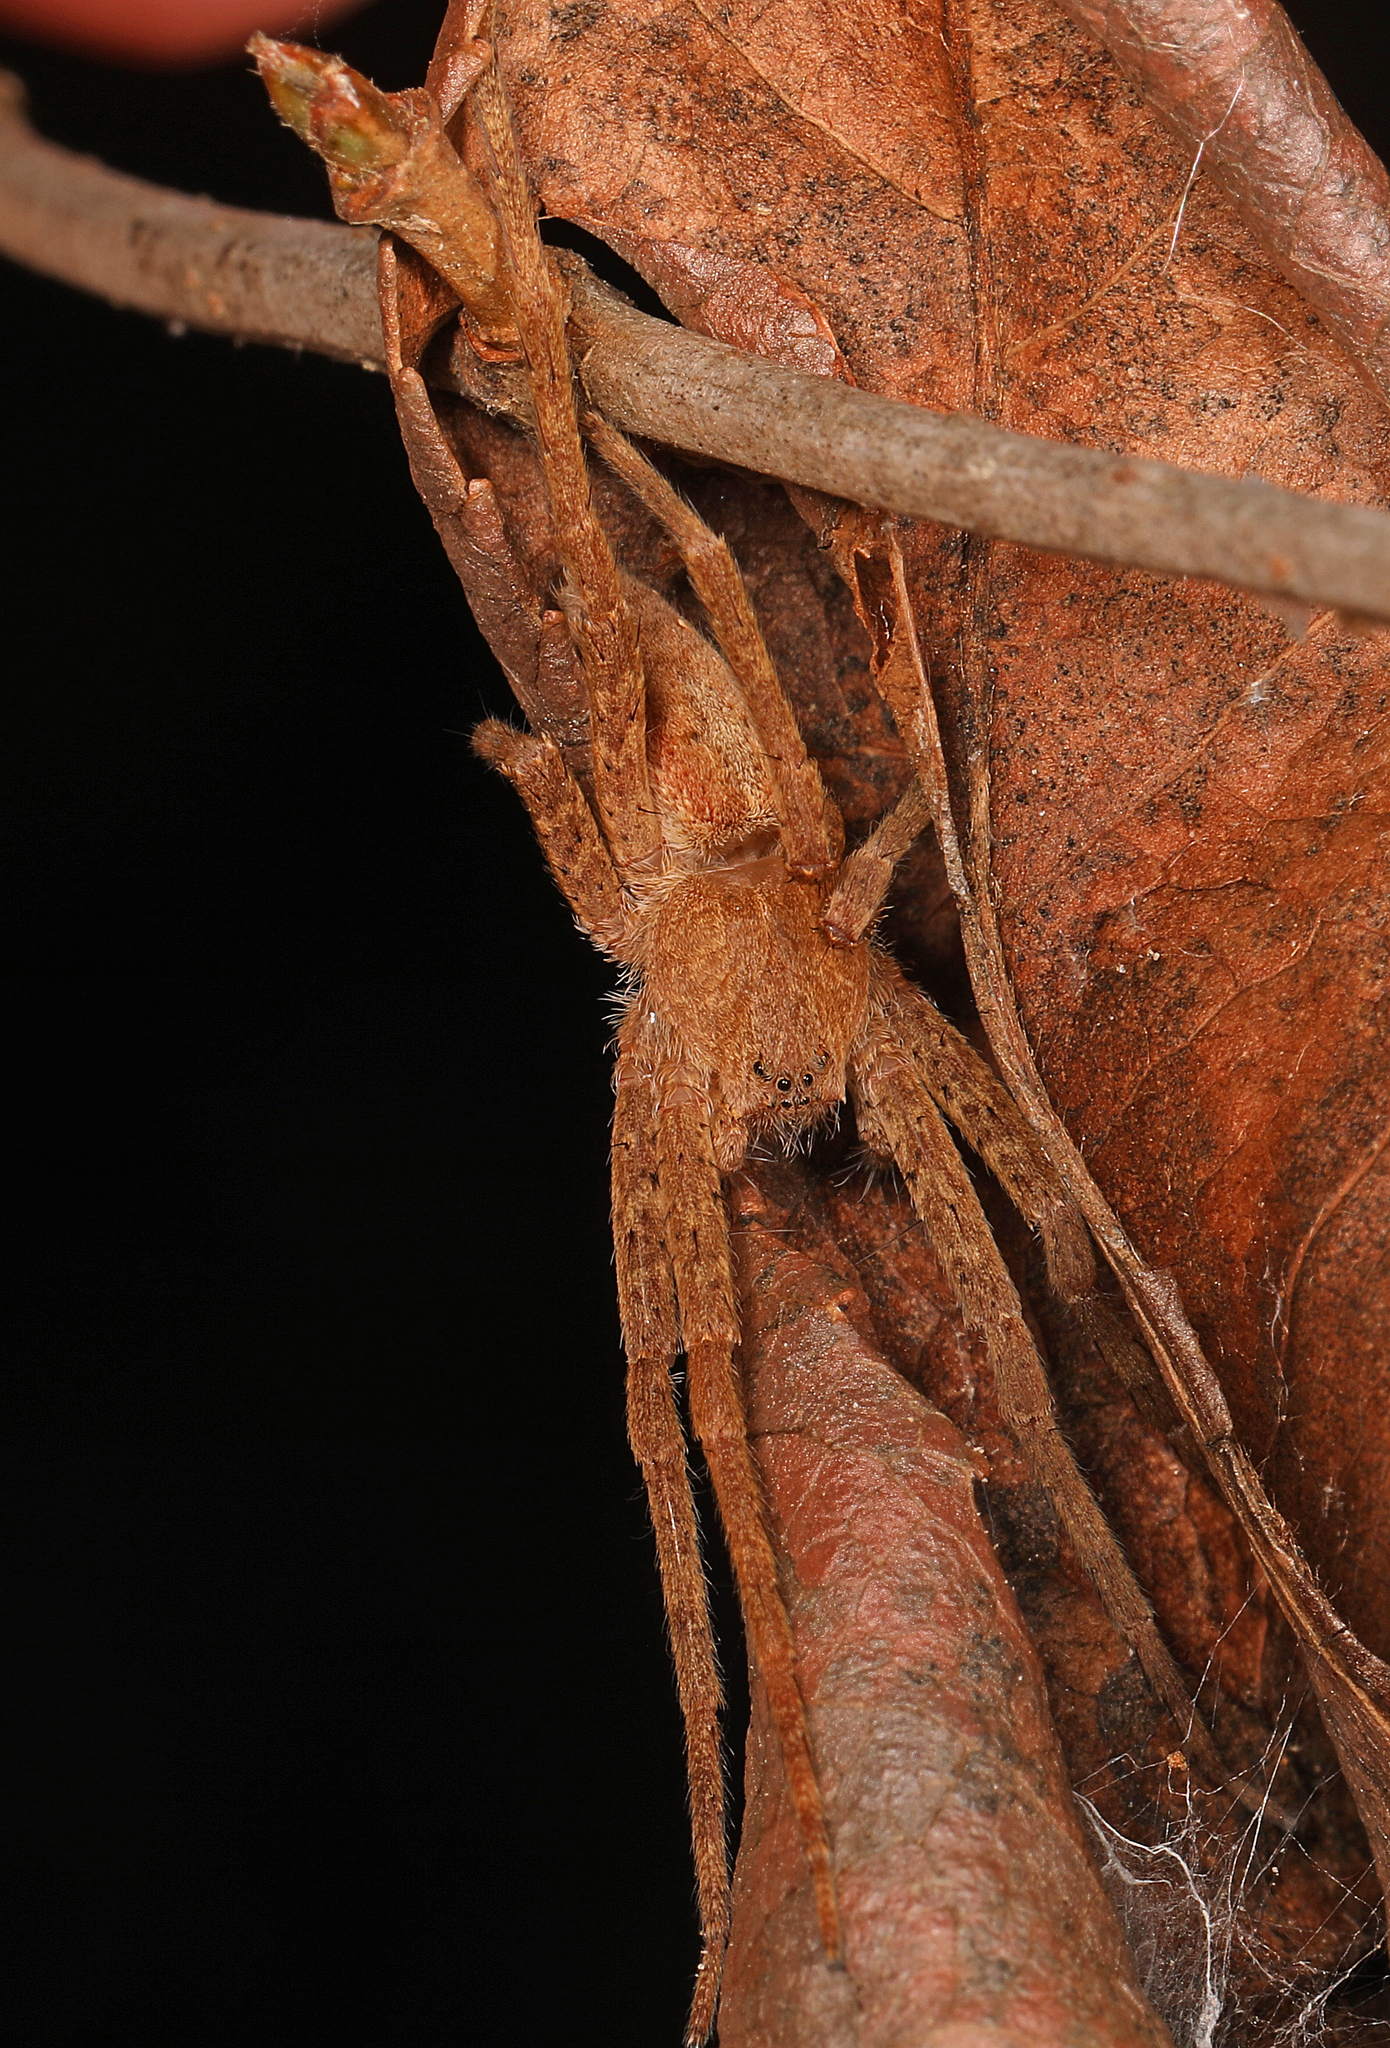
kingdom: Animalia
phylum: Arthropoda
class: Arachnida
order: Araneae
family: Pisauridae
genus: Pisaurina
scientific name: Pisaurina mira
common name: American nursery web spider
